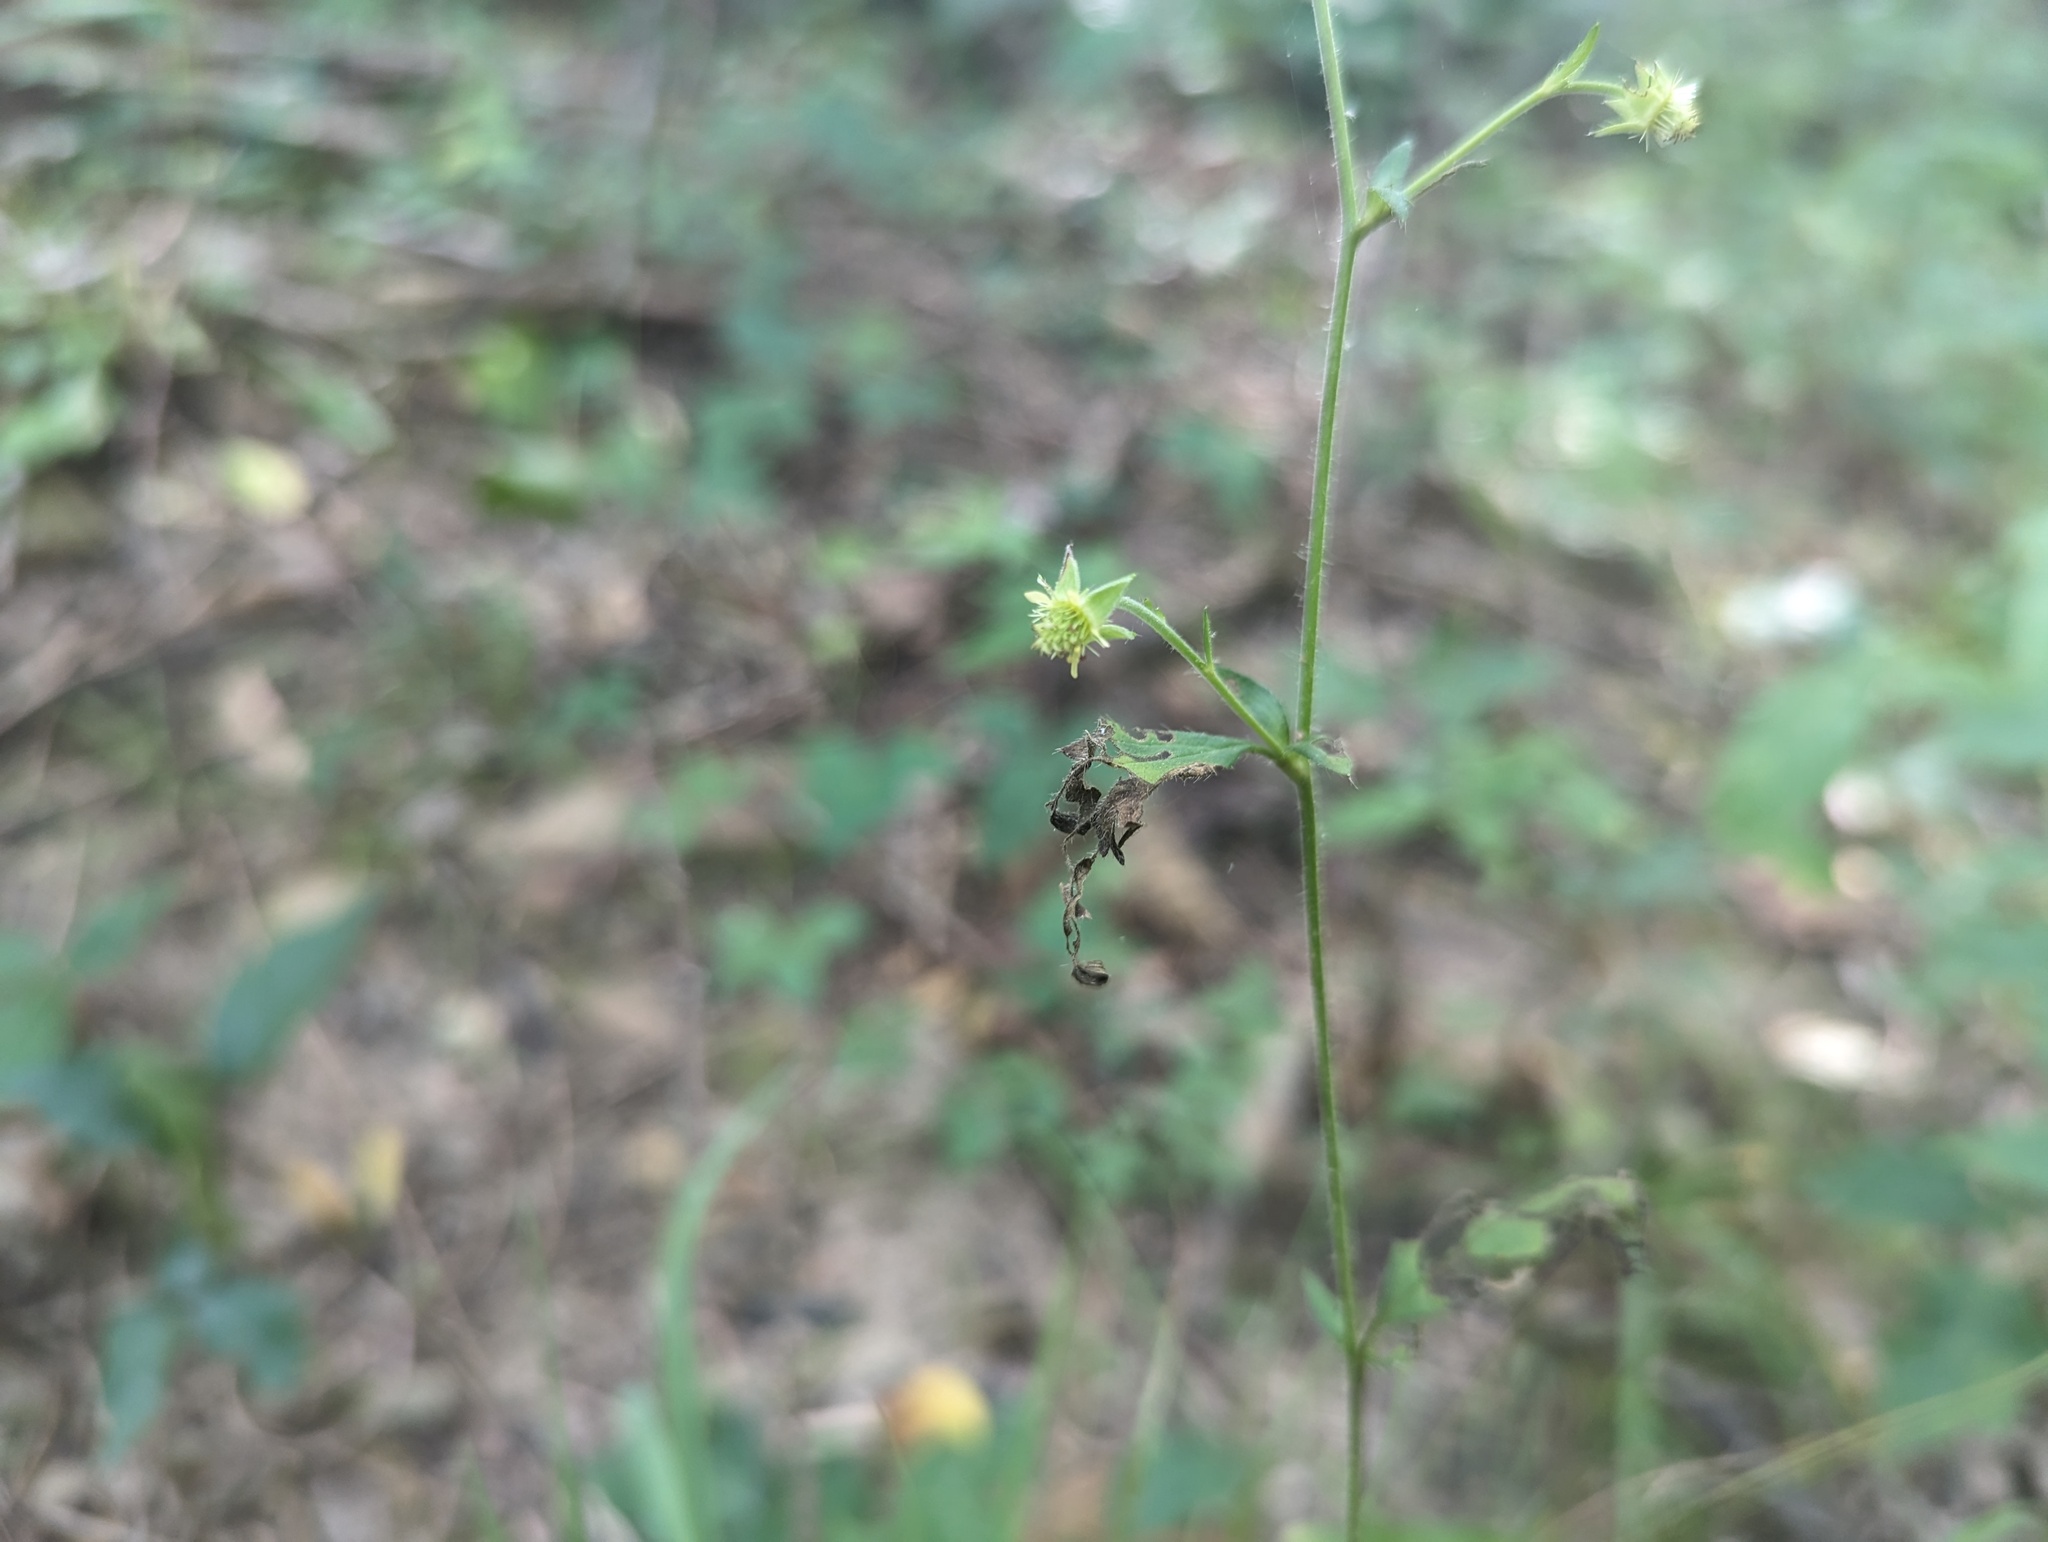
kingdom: Plantae
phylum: Tracheophyta
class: Magnoliopsida
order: Rosales
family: Rosaceae
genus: Geum
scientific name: Geum virginianum
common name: Cream avens
